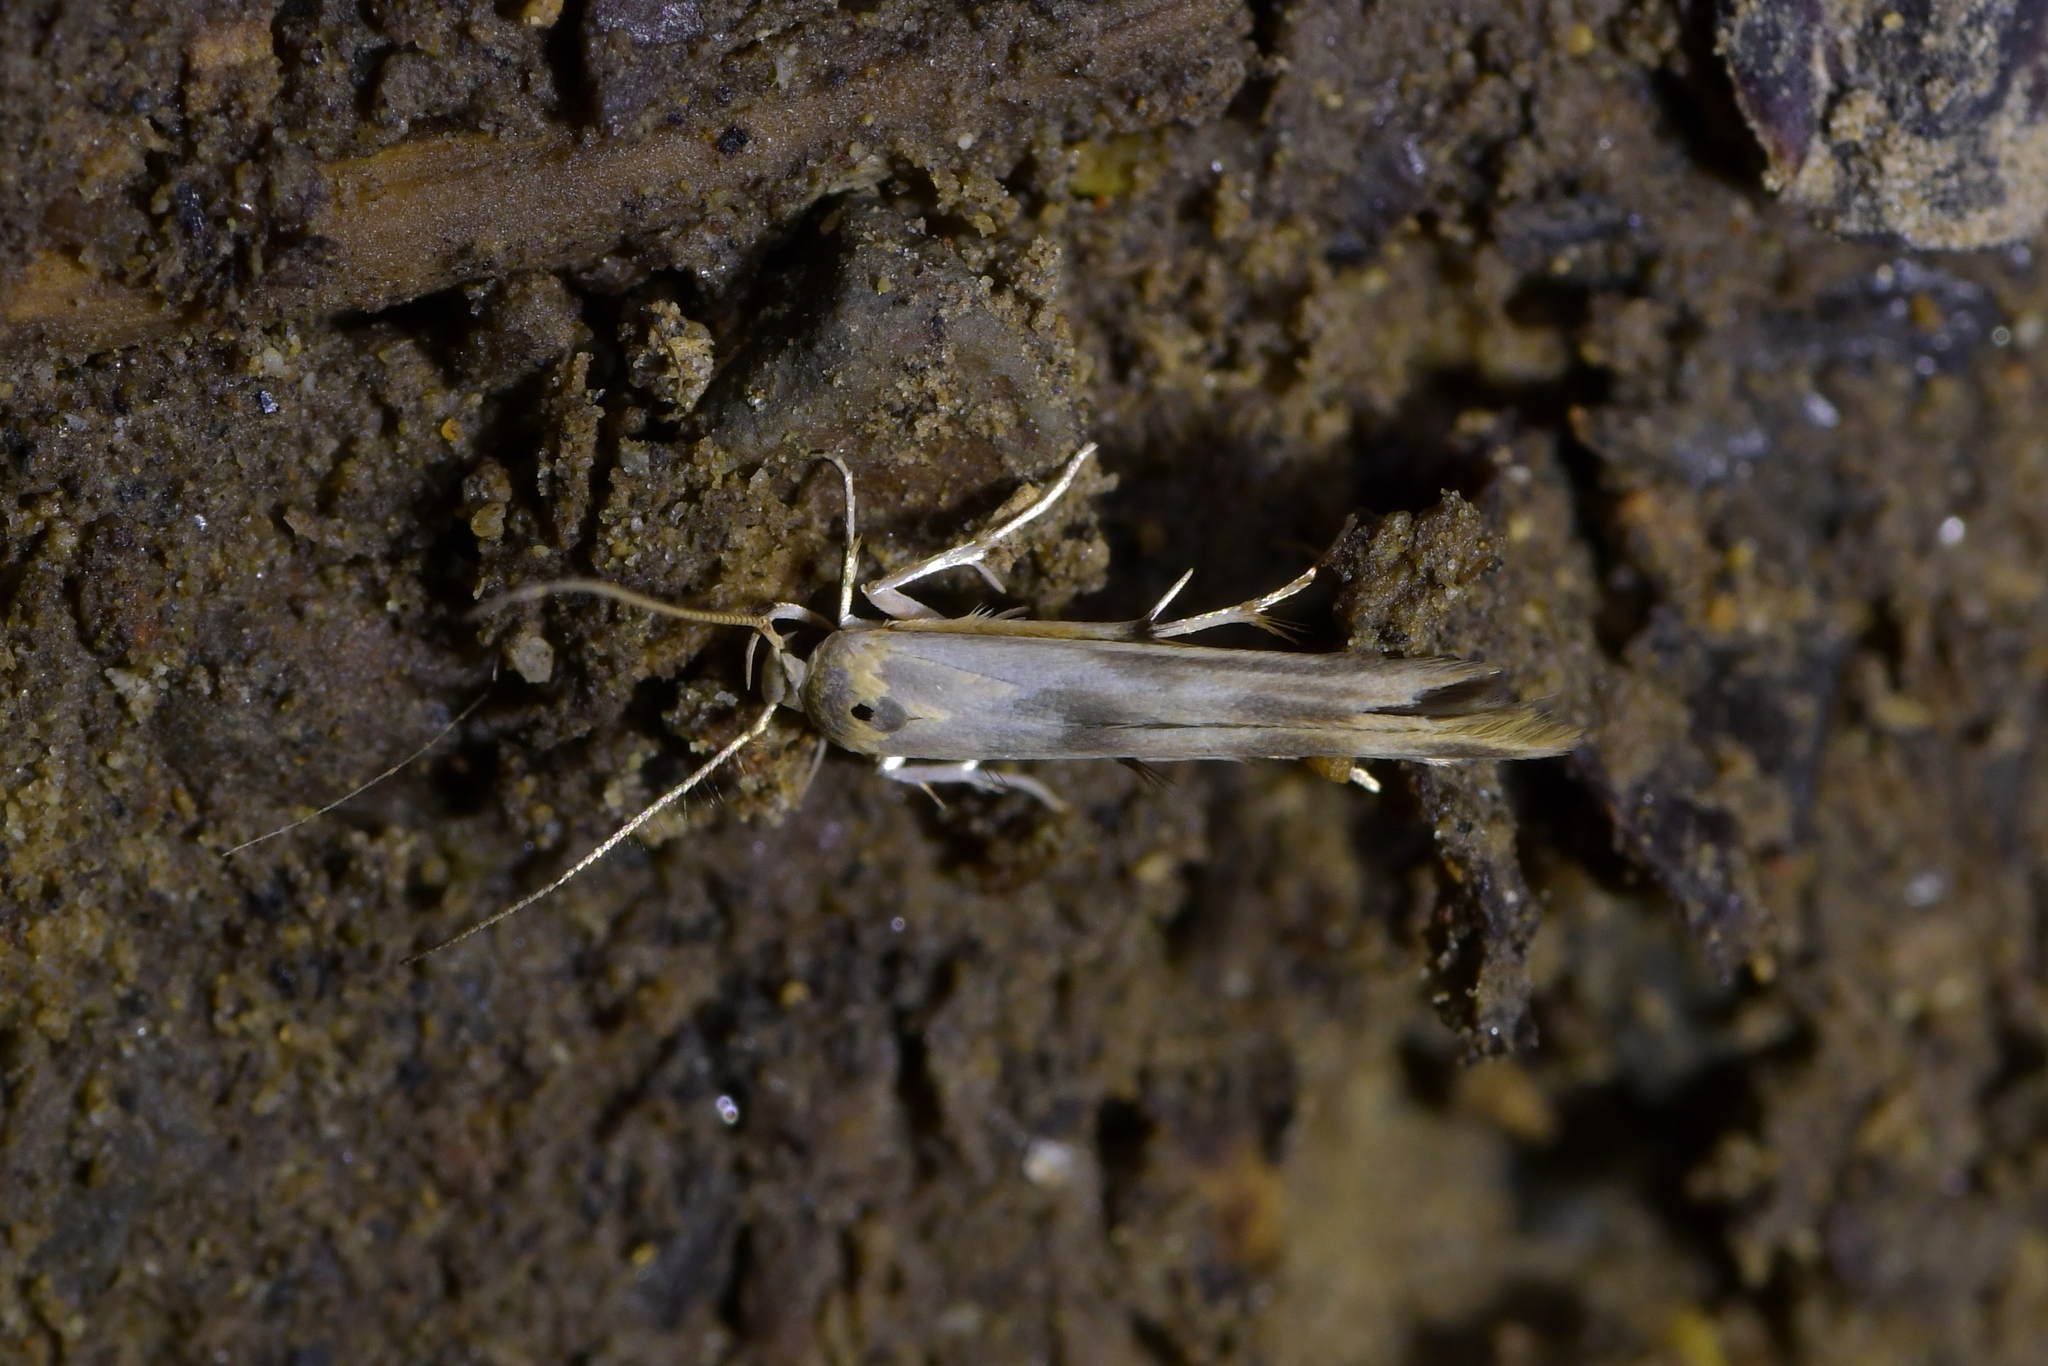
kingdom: Animalia
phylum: Arthropoda
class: Insecta
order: Lepidoptera
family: Stathmopodidae
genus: Stathmopoda
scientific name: Stathmopoda horticola
